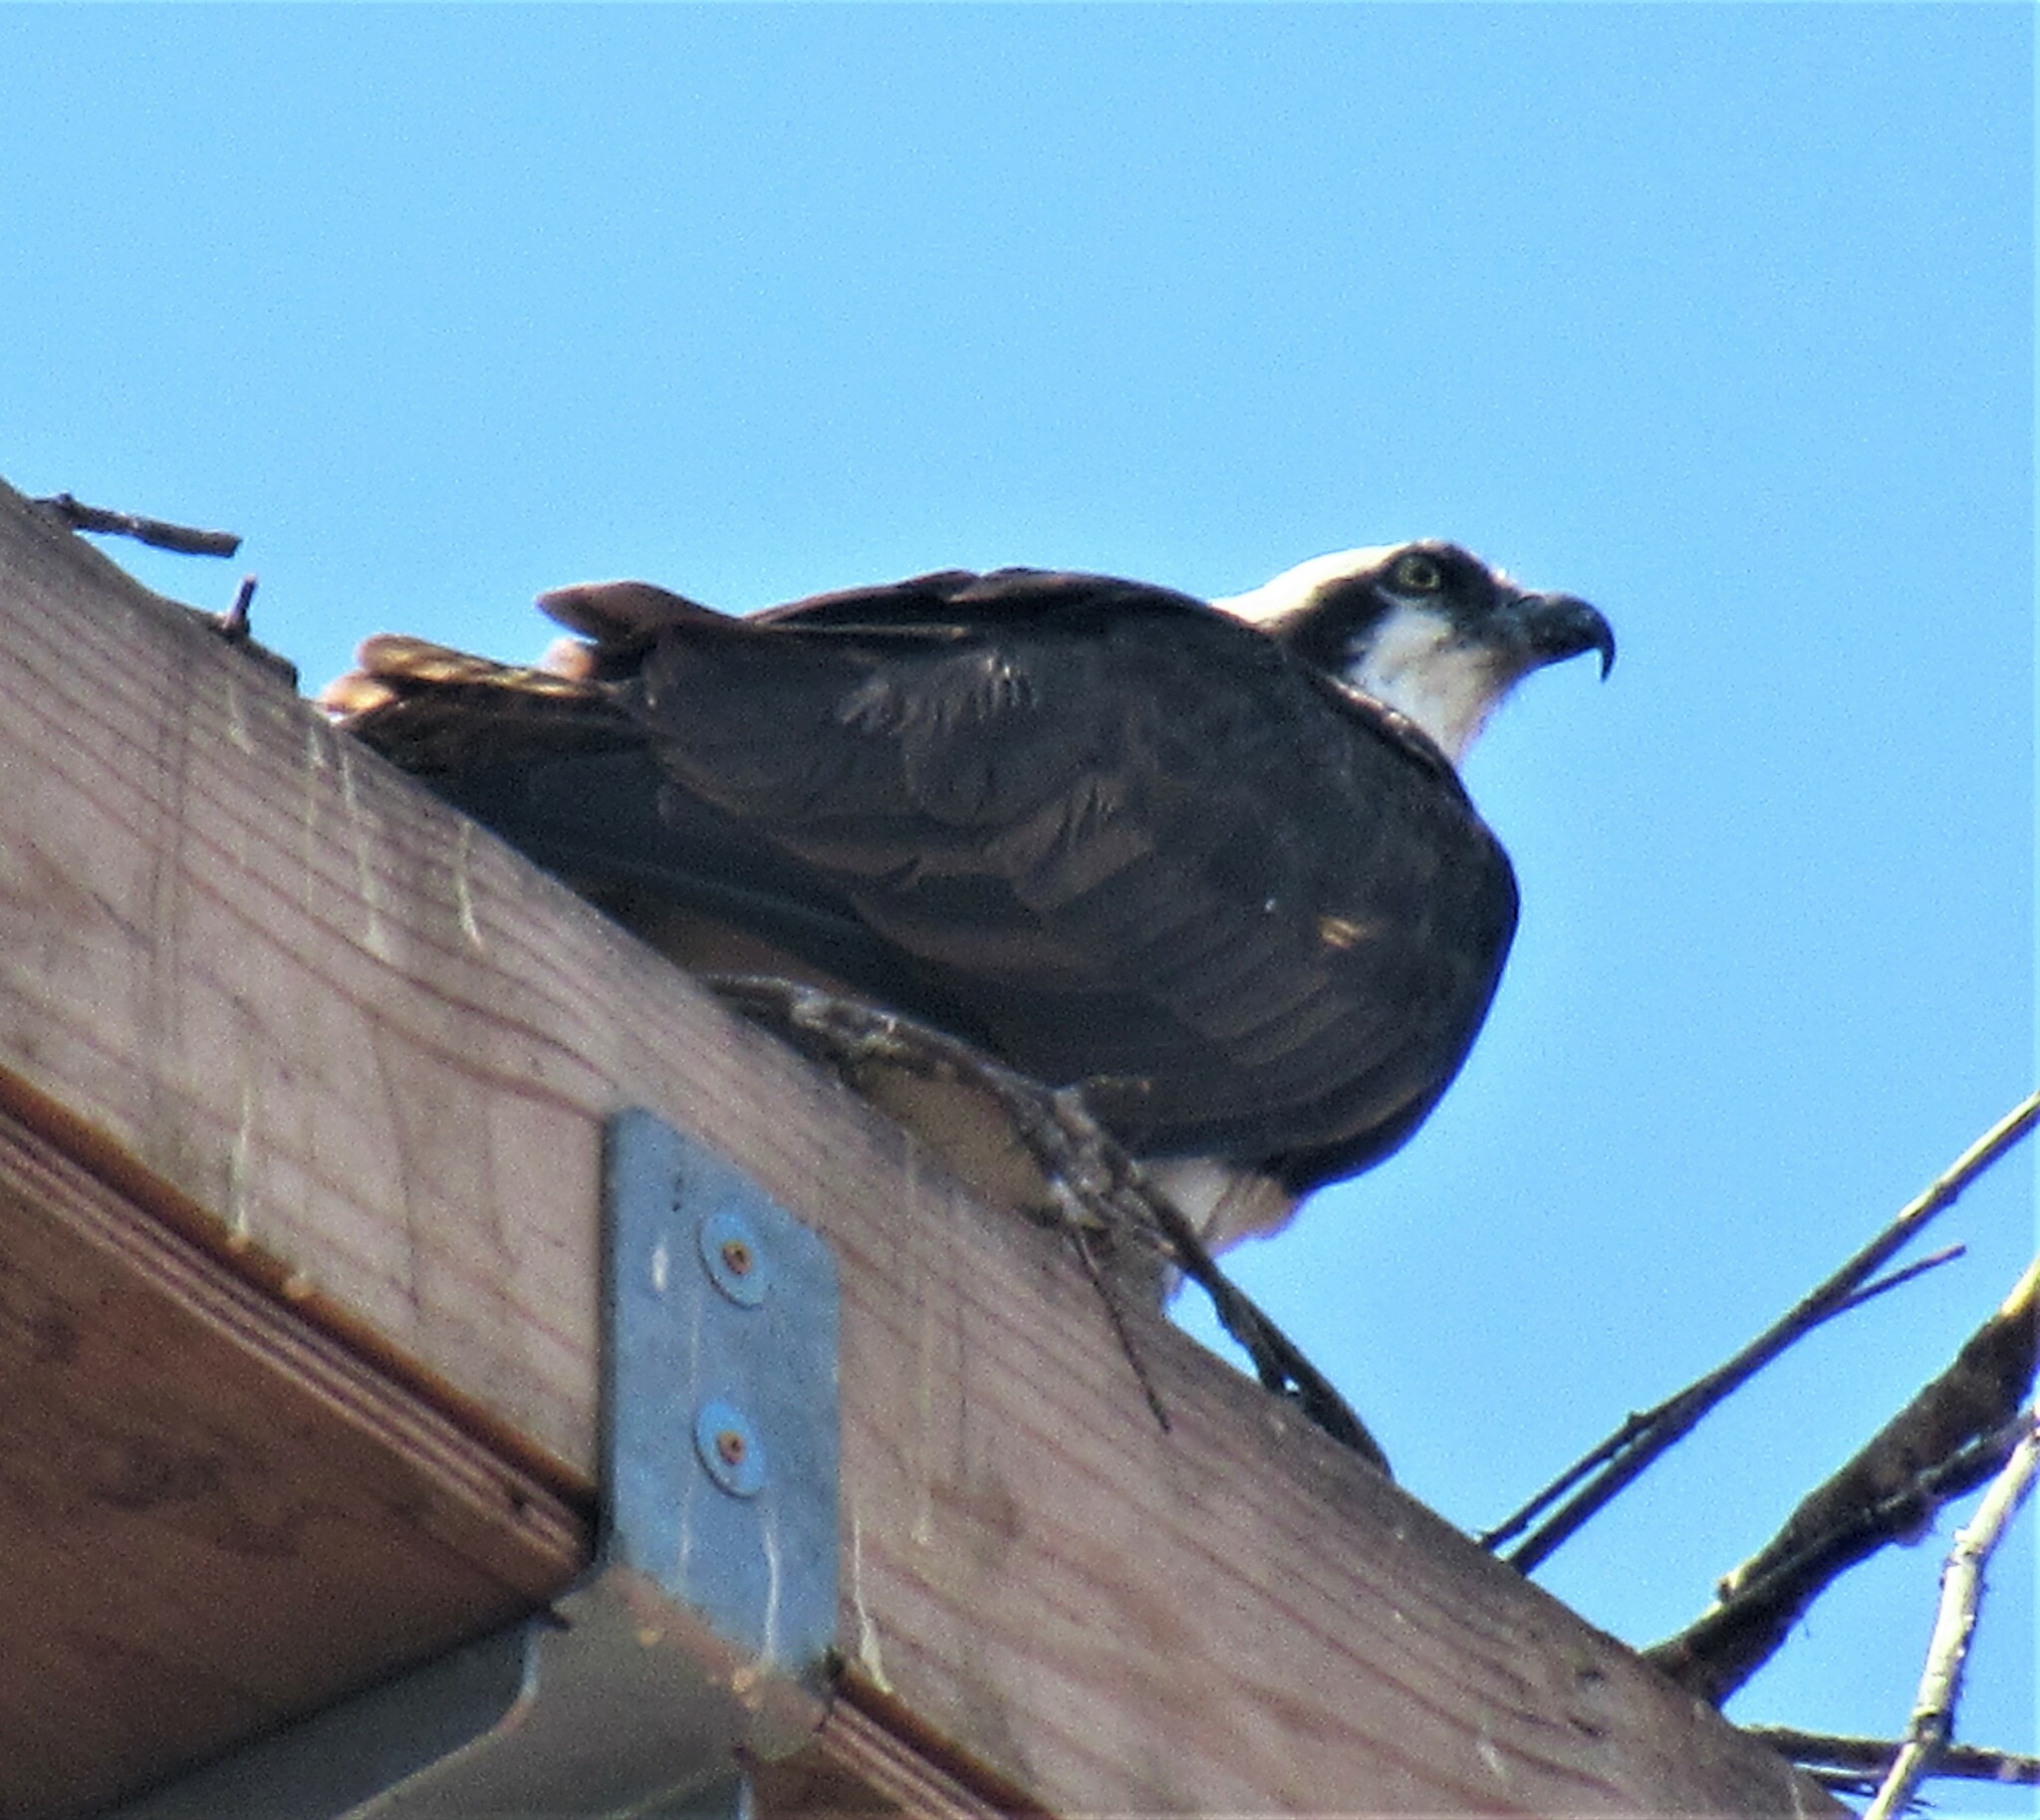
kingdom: Animalia
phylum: Chordata
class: Aves
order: Accipitriformes
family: Pandionidae
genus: Pandion
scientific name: Pandion haliaetus
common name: Osprey
